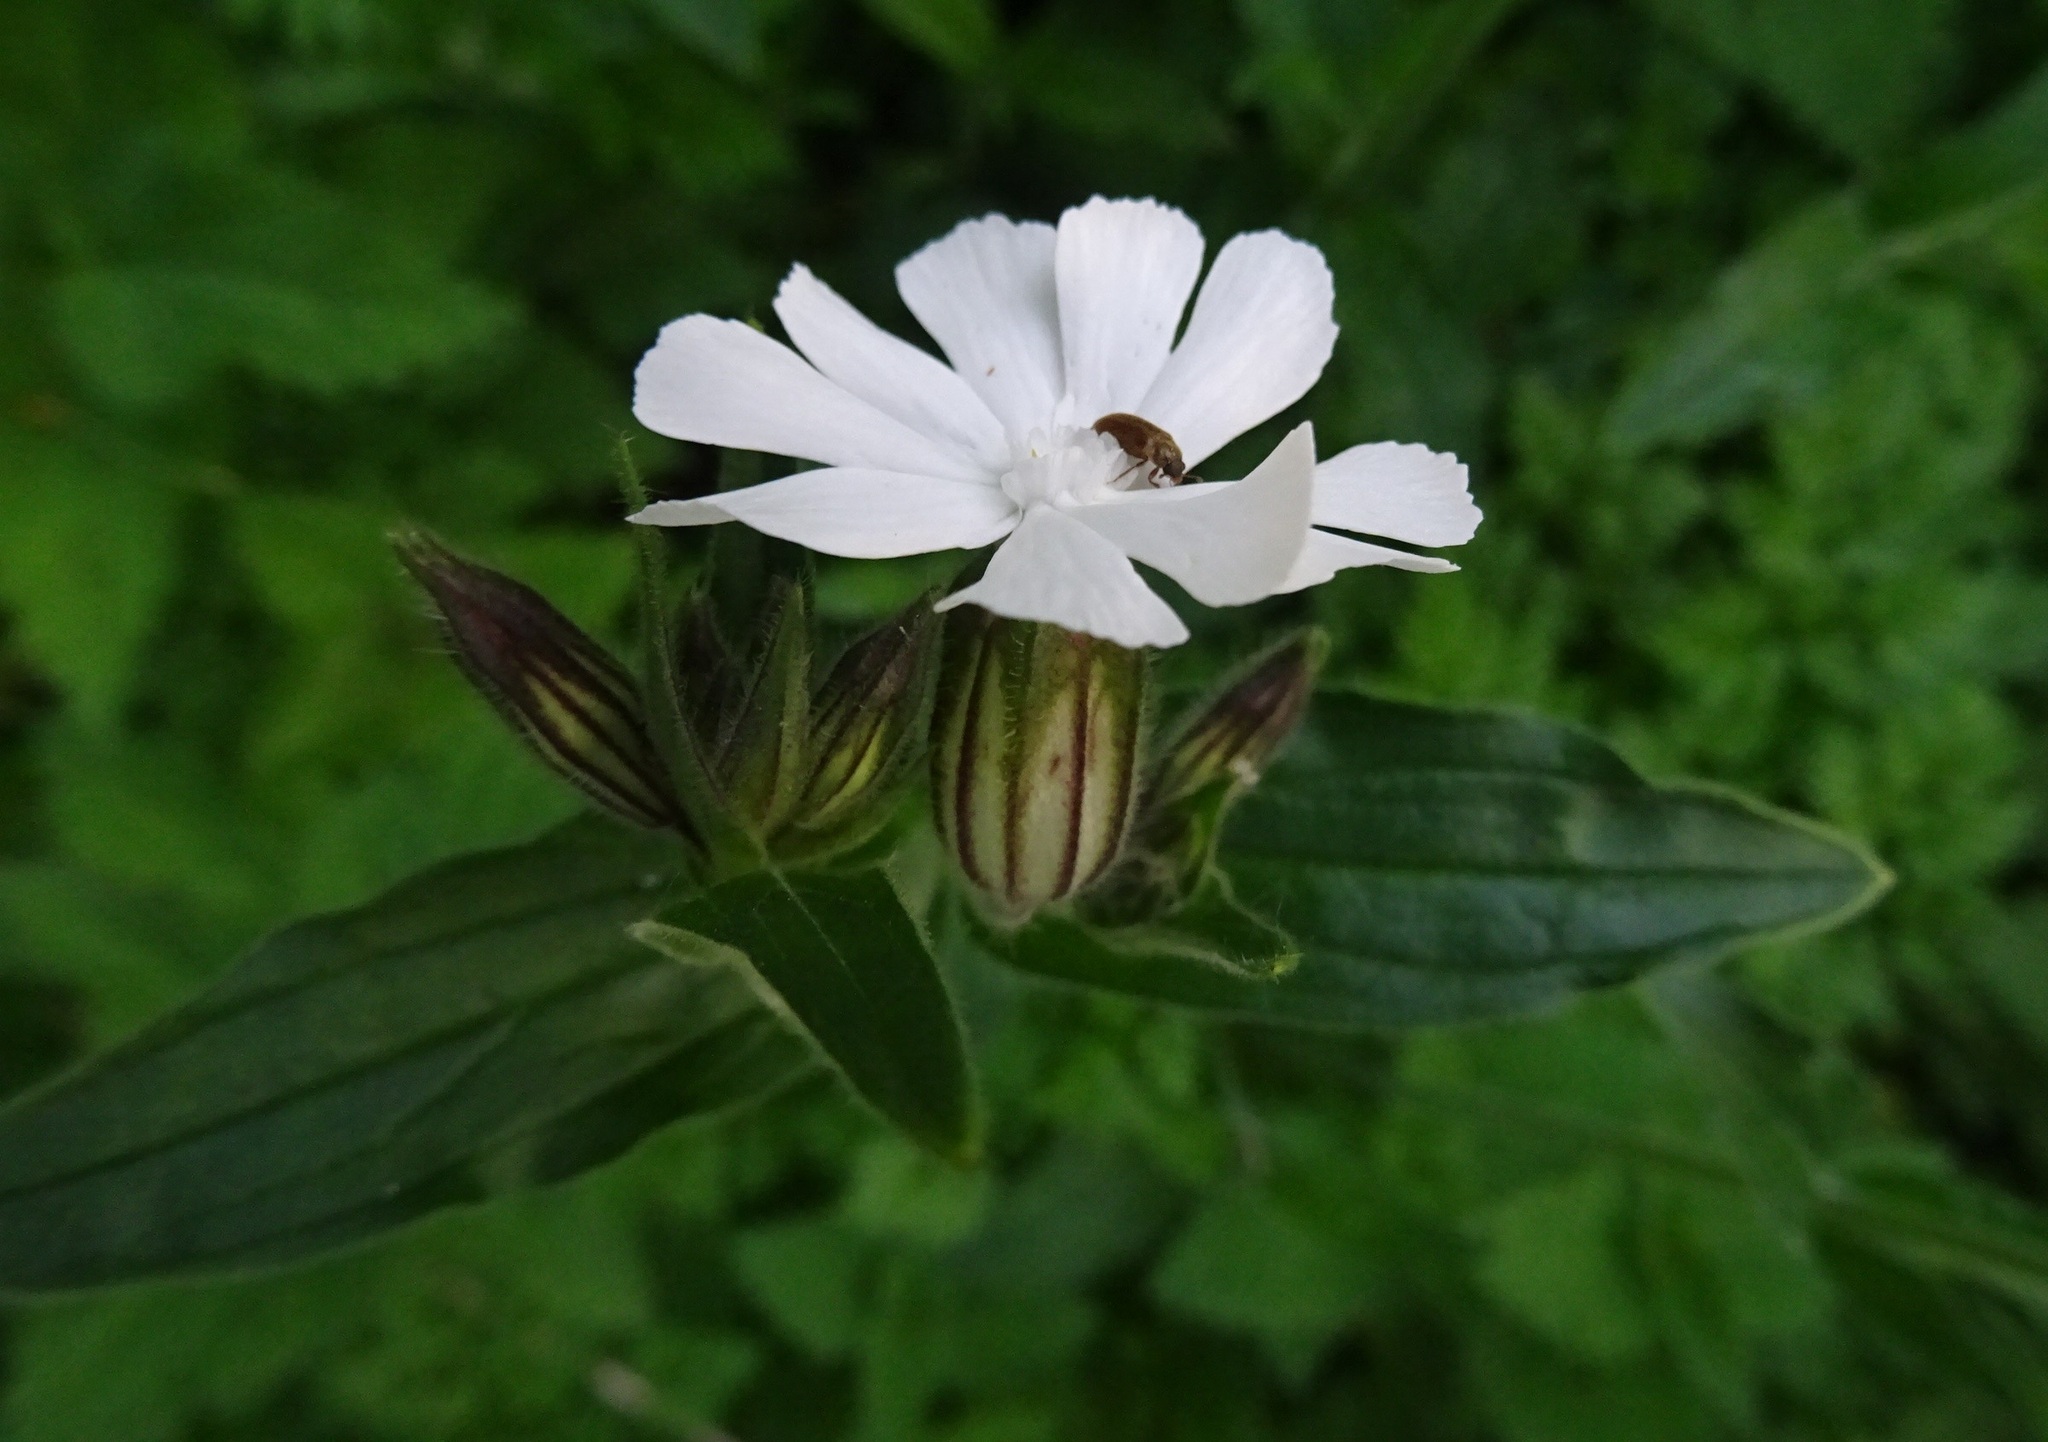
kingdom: Plantae
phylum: Tracheophyta
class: Magnoliopsida
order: Caryophyllales
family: Caryophyllaceae
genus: Silene
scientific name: Silene latifolia
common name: White campion
